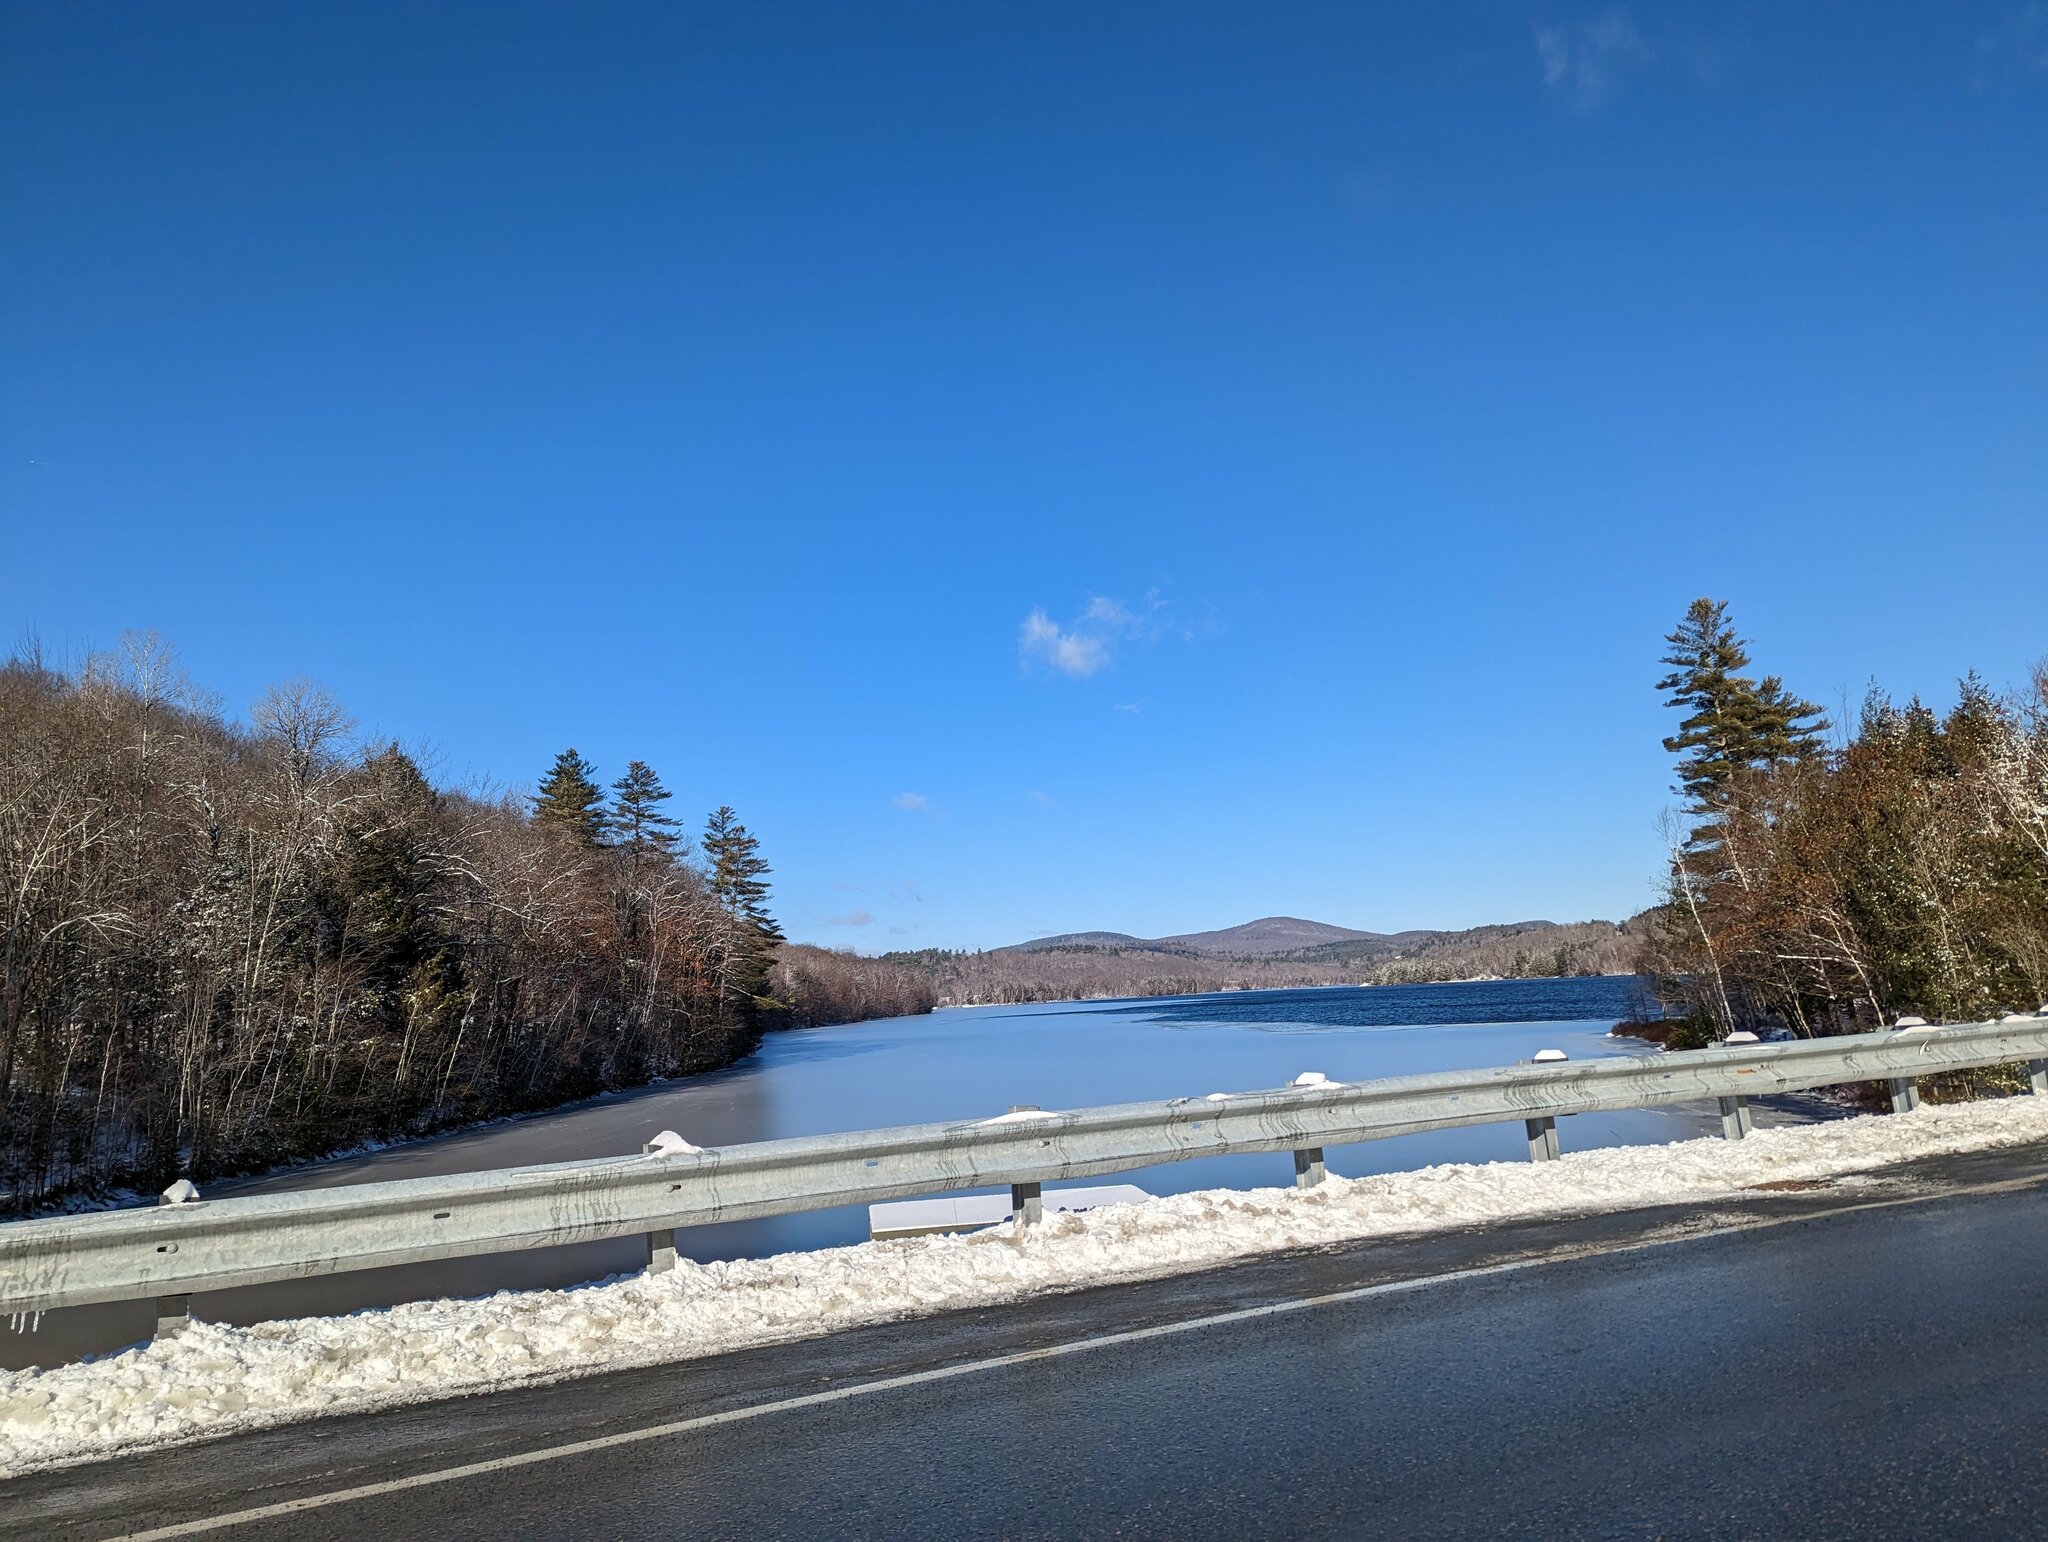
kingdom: Plantae
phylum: Tracheophyta
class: Pinopsida
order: Pinales
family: Pinaceae
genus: Pinus
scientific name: Pinus strobus
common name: Weymouth pine
